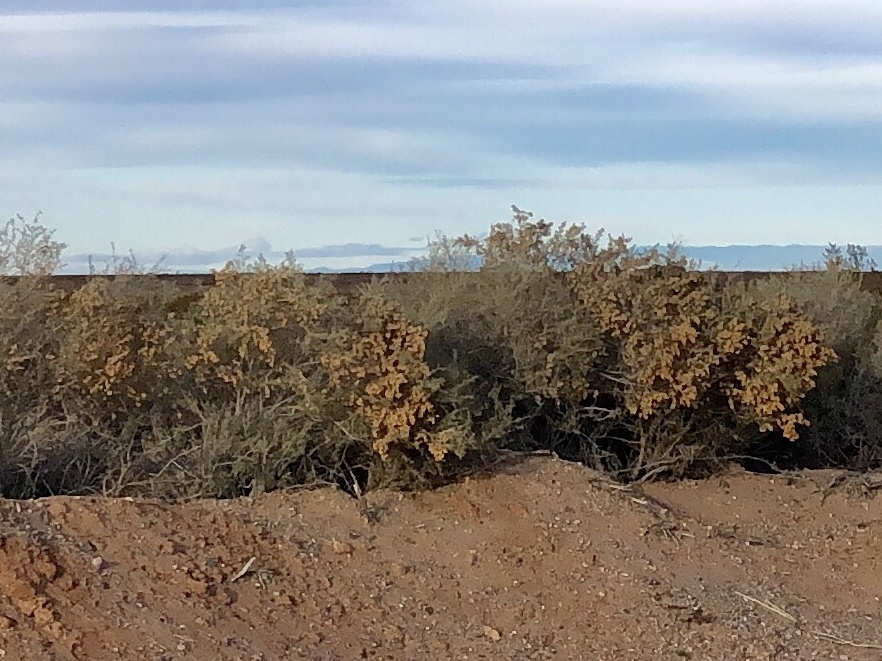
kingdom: Plantae
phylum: Tracheophyta
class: Magnoliopsida
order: Caryophyllales
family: Amaranthaceae
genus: Atriplex
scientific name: Atriplex canescens
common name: Four-wing saltbush
